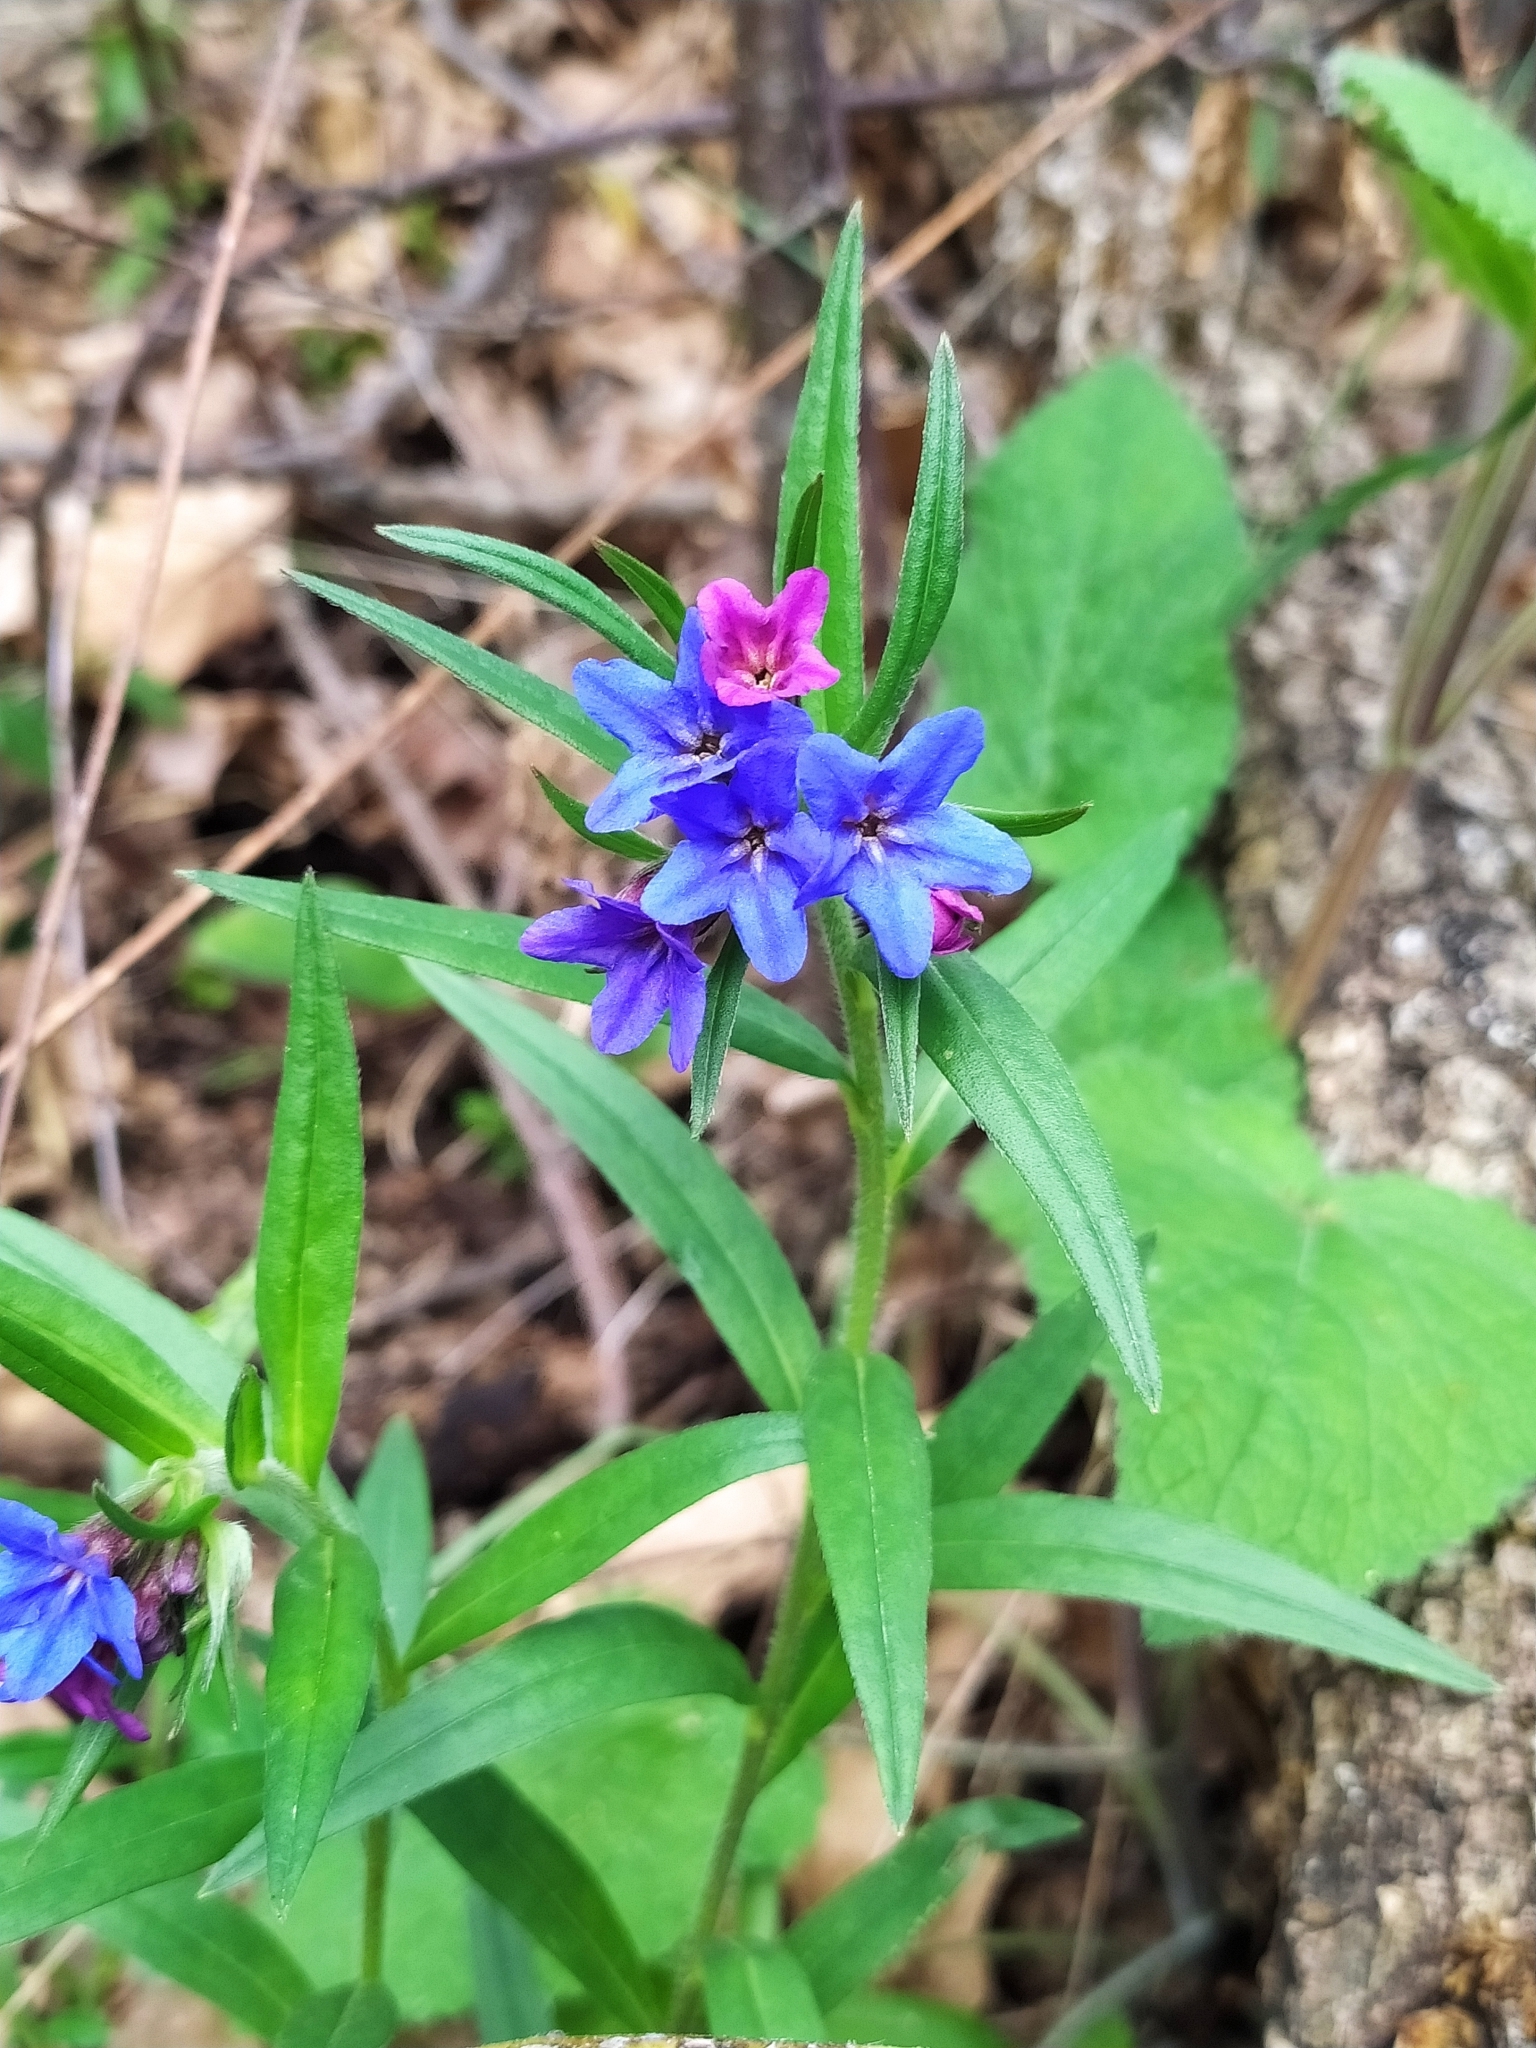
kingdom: Plantae
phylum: Tracheophyta
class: Magnoliopsida
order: Boraginales
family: Boraginaceae
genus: Aegonychon
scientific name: Aegonychon purpurocaeruleum
